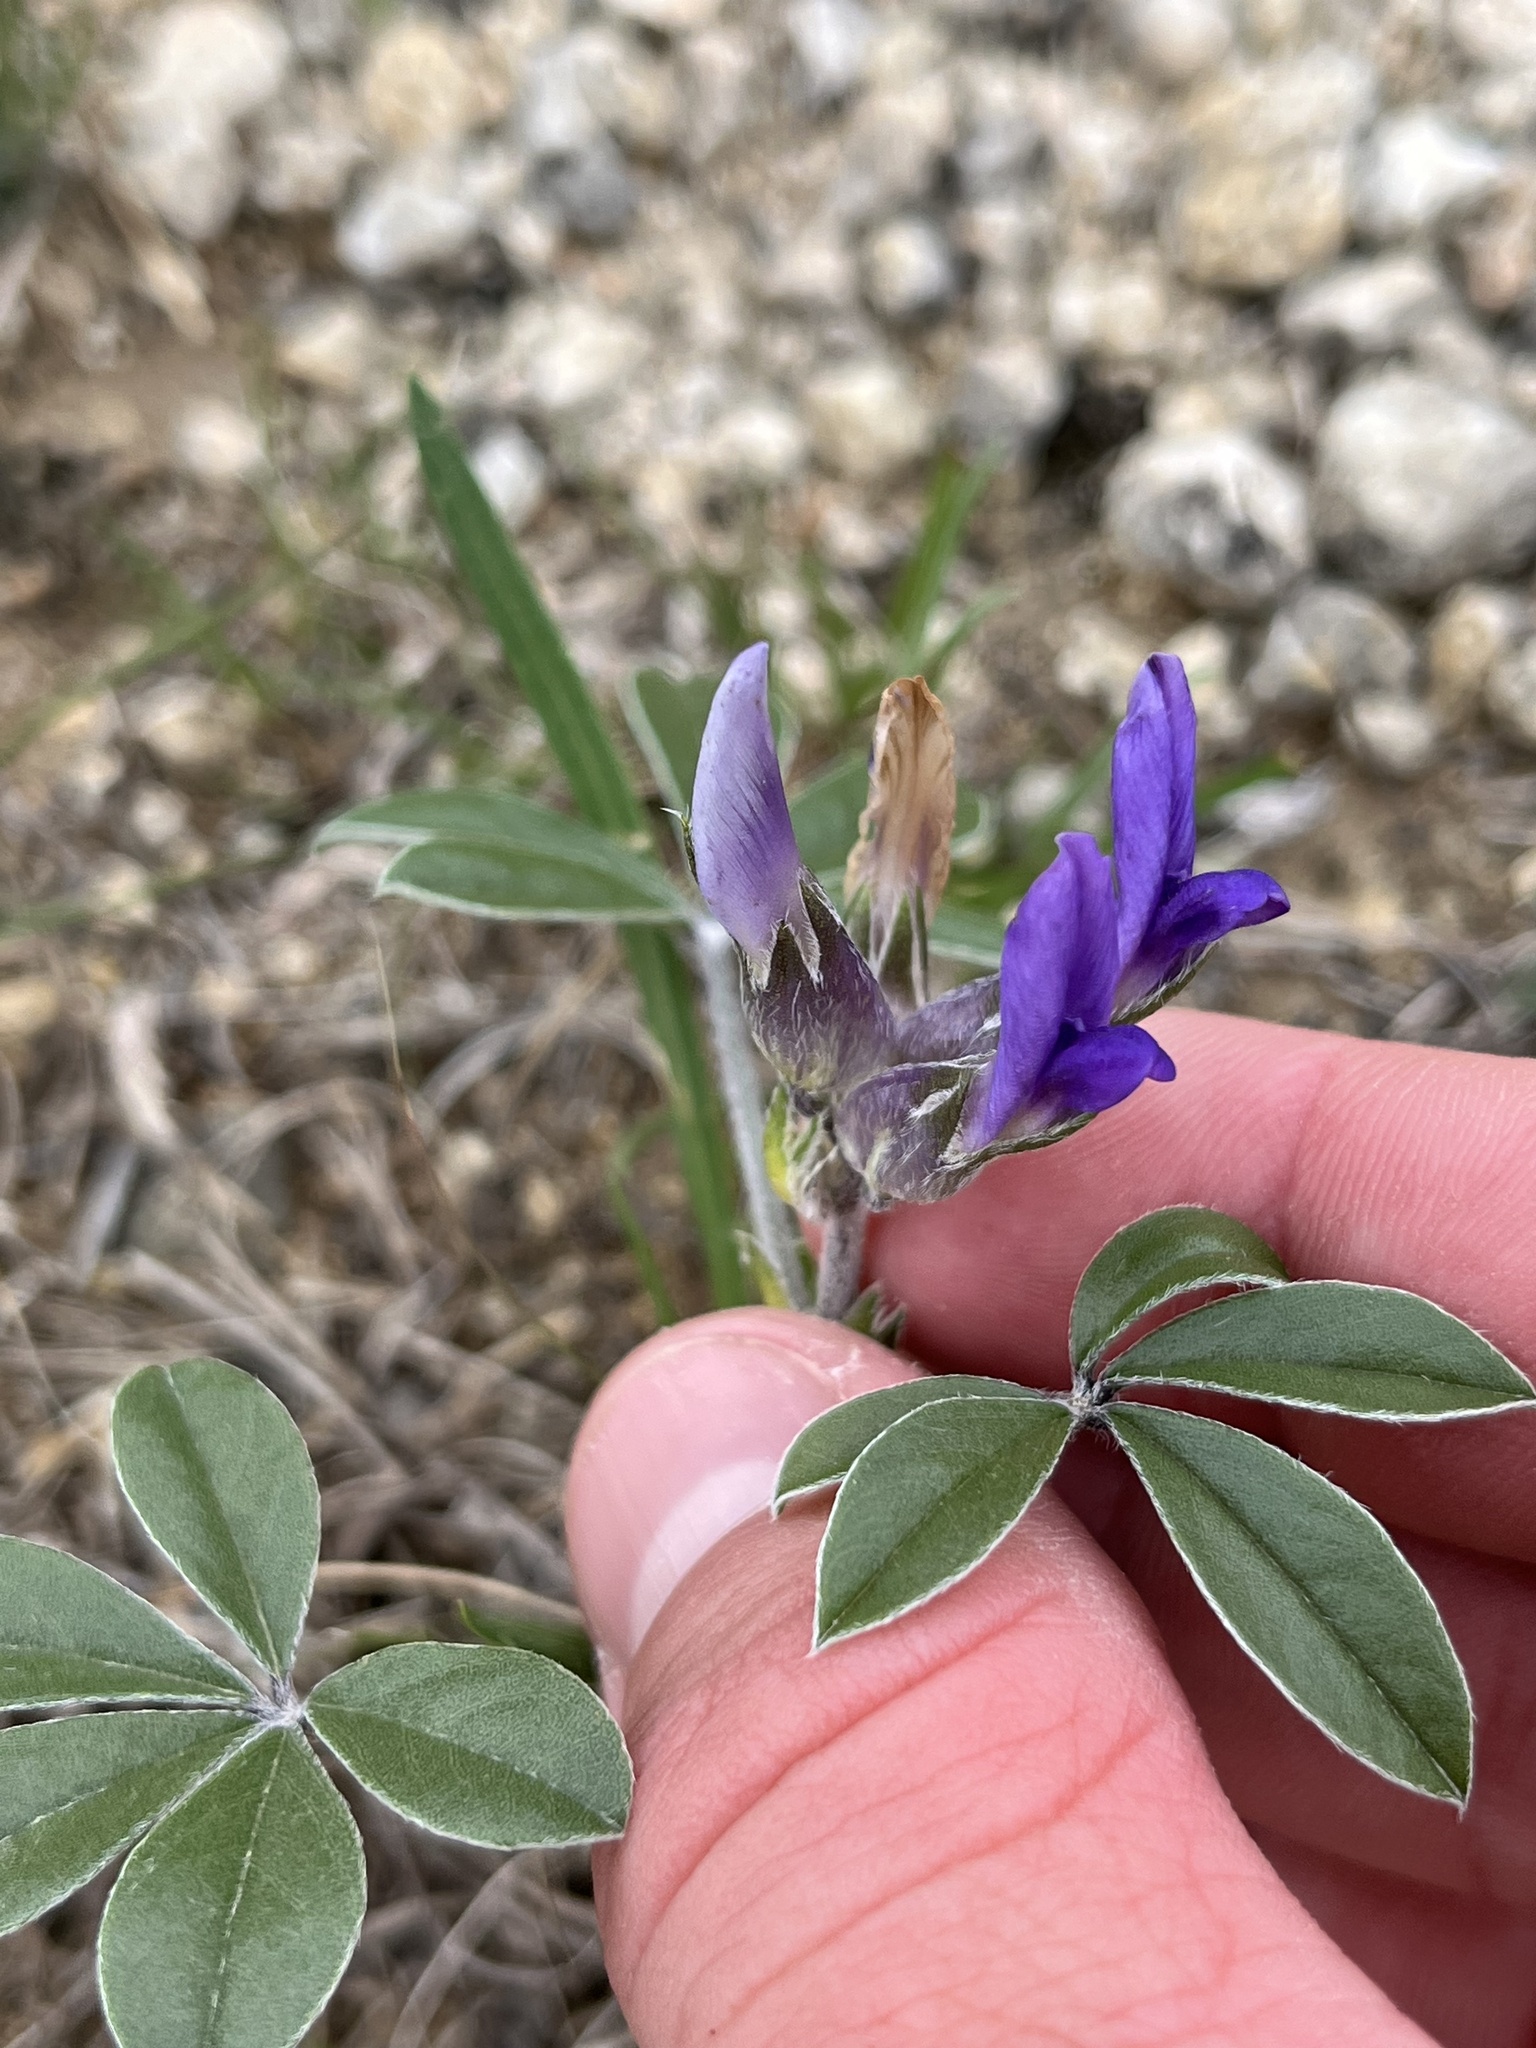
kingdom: Plantae
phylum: Tracheophyta
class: Magnoliopsida
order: Fabales
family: Fabaceae
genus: Pediomelum
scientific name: Pediomelum latestipulatum
